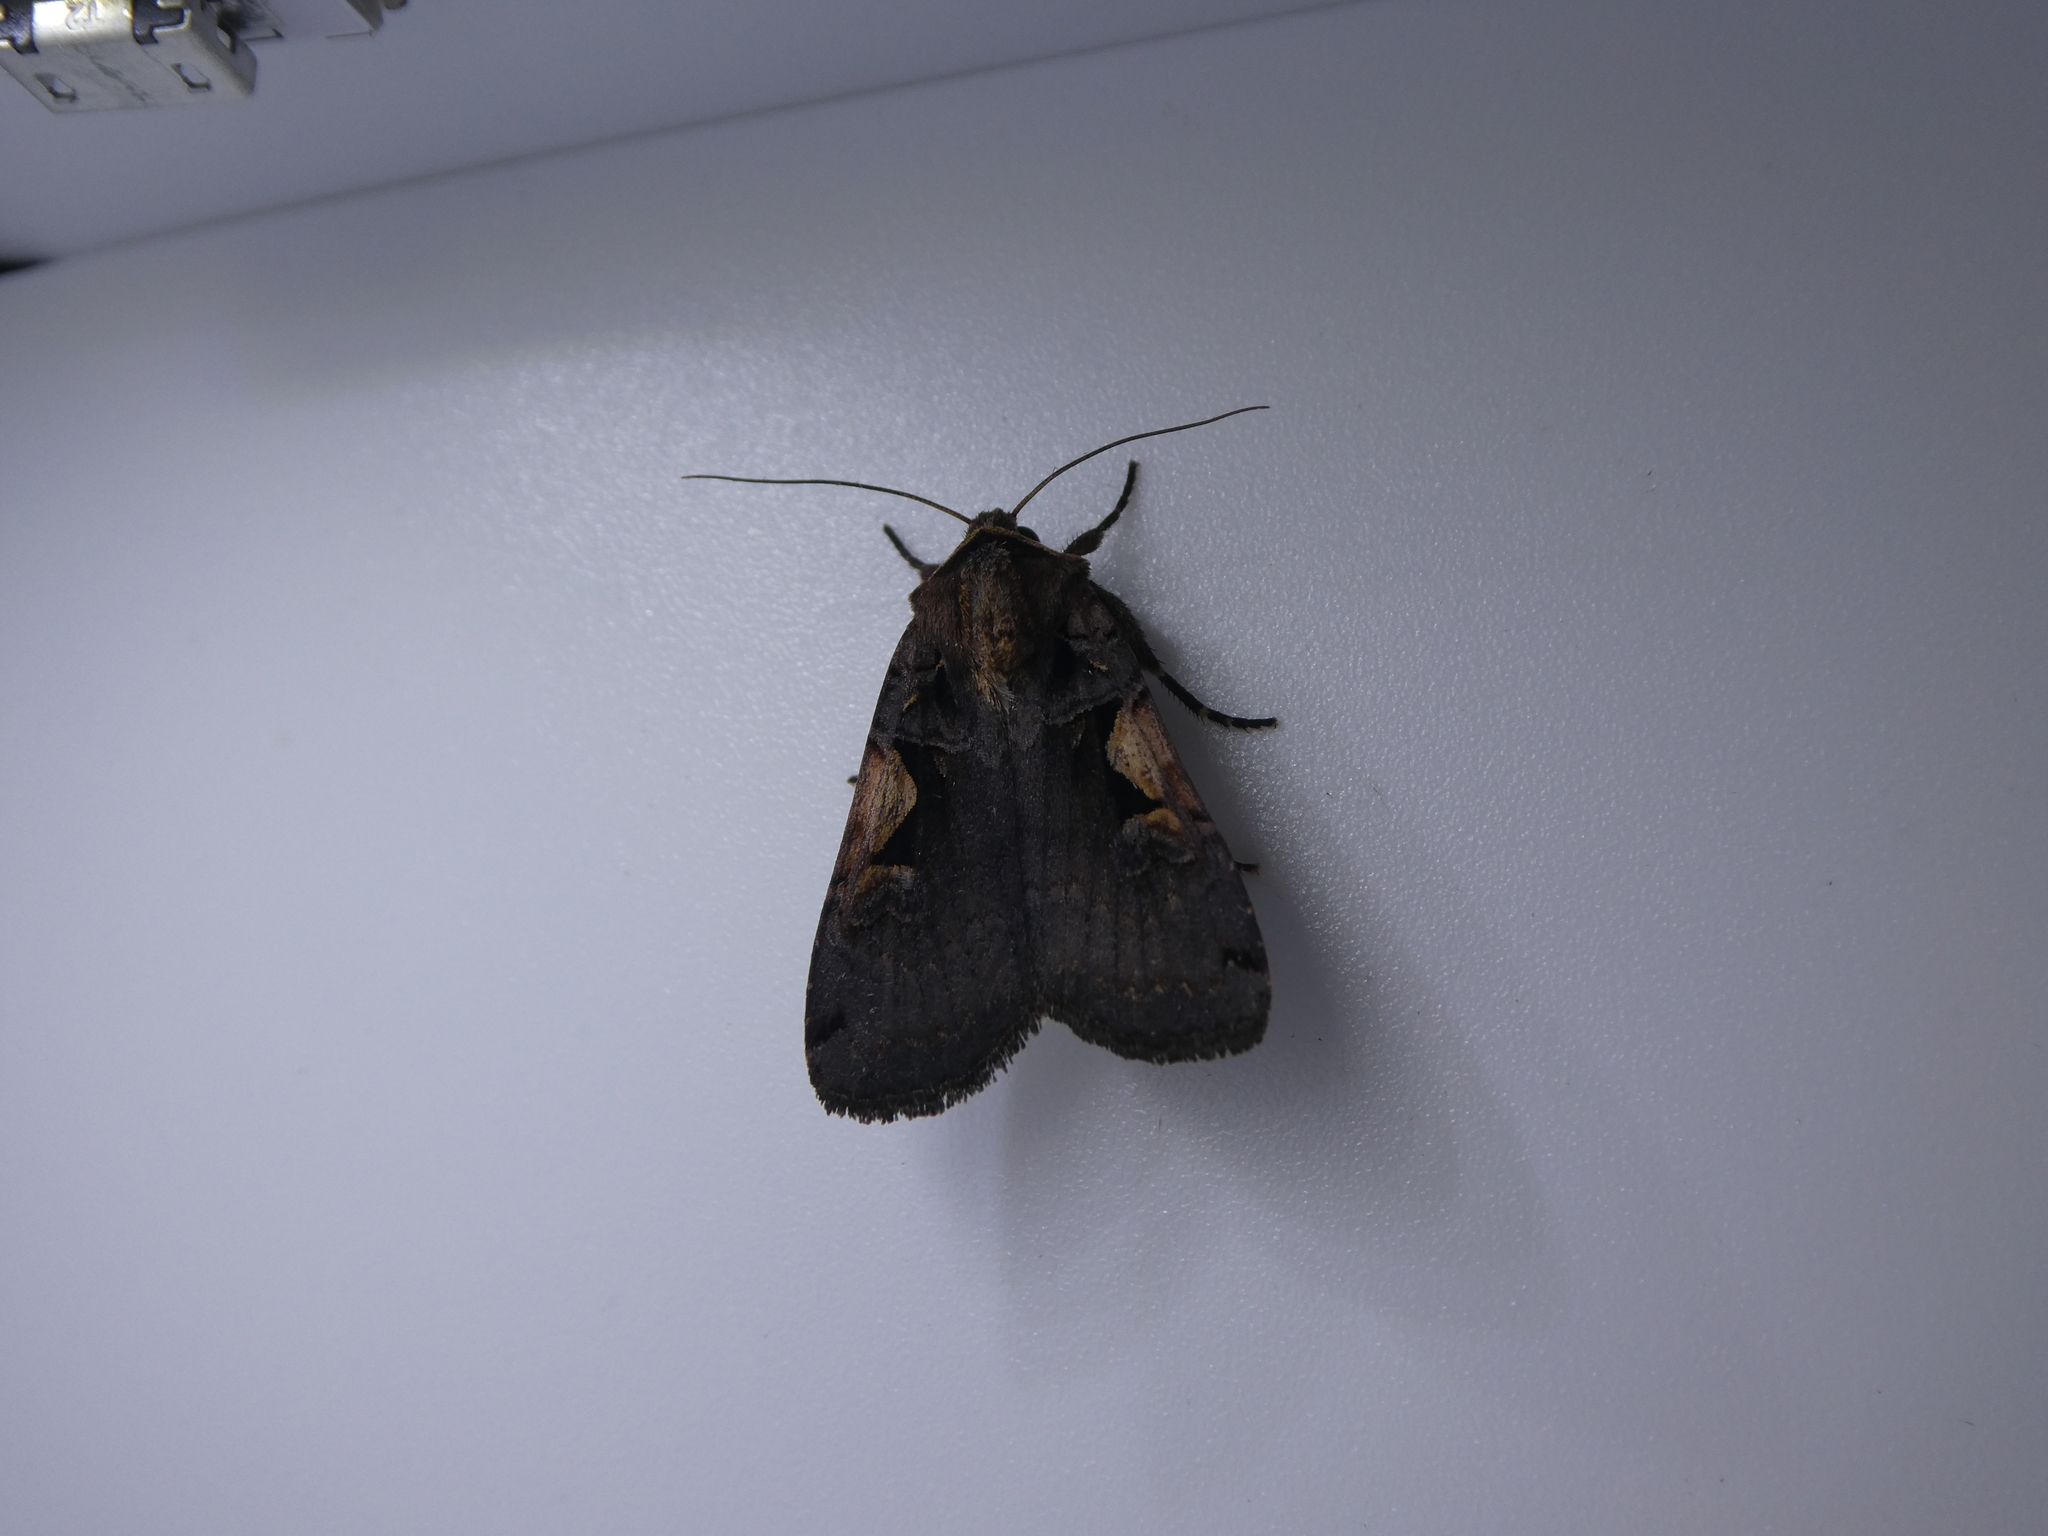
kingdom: Animalia
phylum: Arthropoda
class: Insecta
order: Lepidoptera
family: Noctuidae
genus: Xestia
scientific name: Xestia
